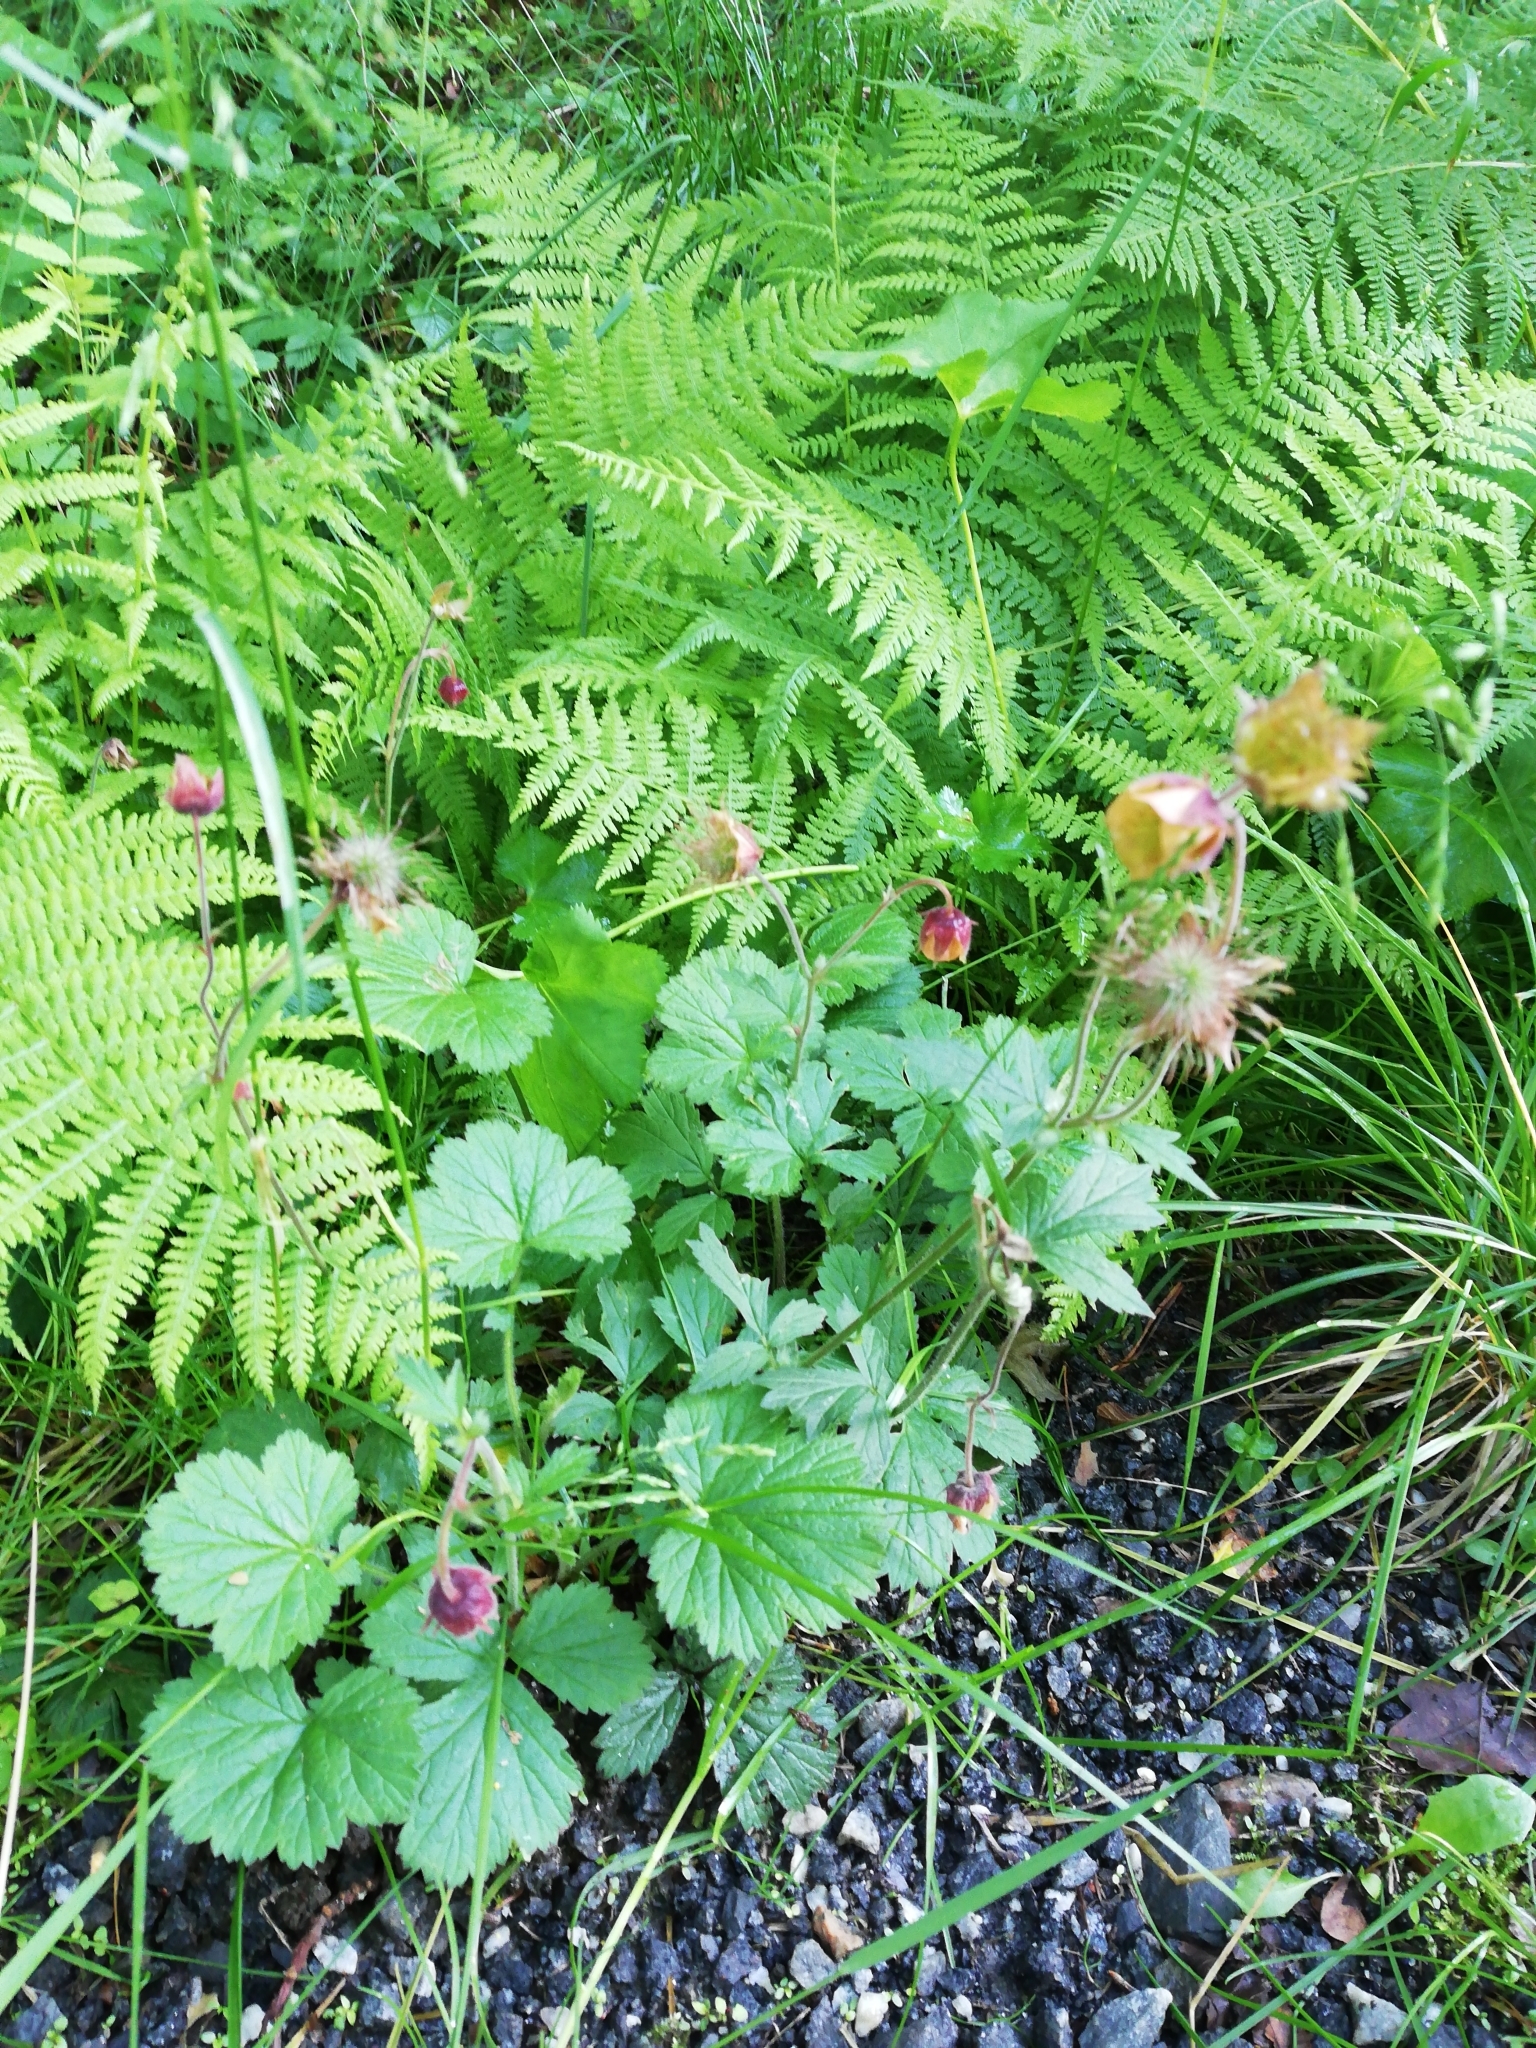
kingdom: Plantae
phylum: Tracheophyta
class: Magnoliopsida
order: Rosales
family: Rosaceae
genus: Geum
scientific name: Geum rivale
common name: Water avens
